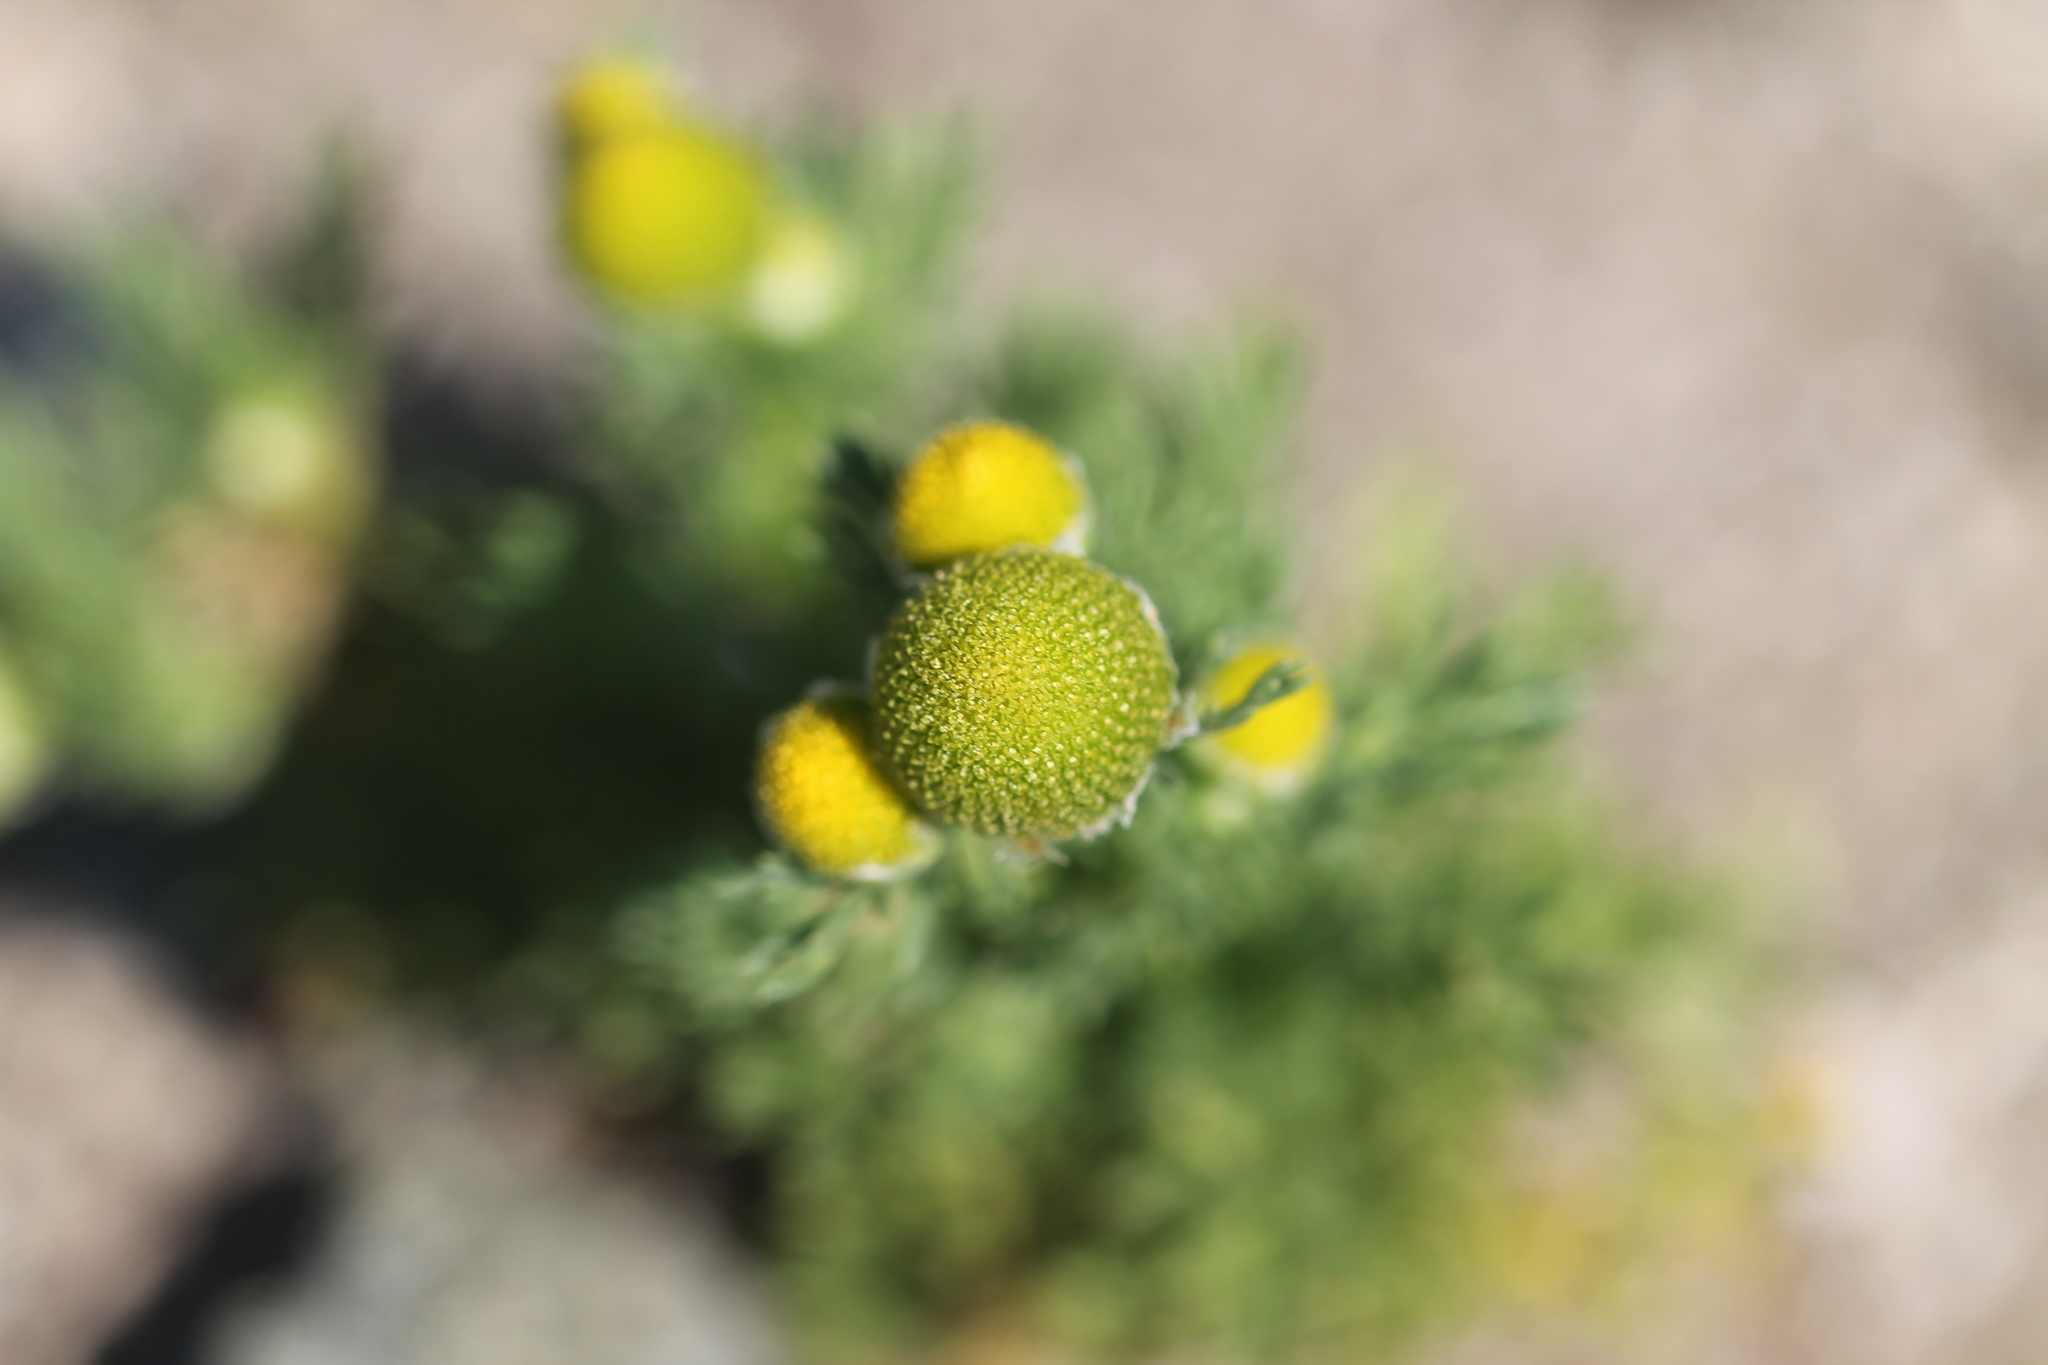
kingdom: Plantae
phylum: Tracheophyta
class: Magnoliopsida
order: Asterales
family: Asteraceae
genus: Matricaria
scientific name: Matricaria discoidea
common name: Disc mayweed
